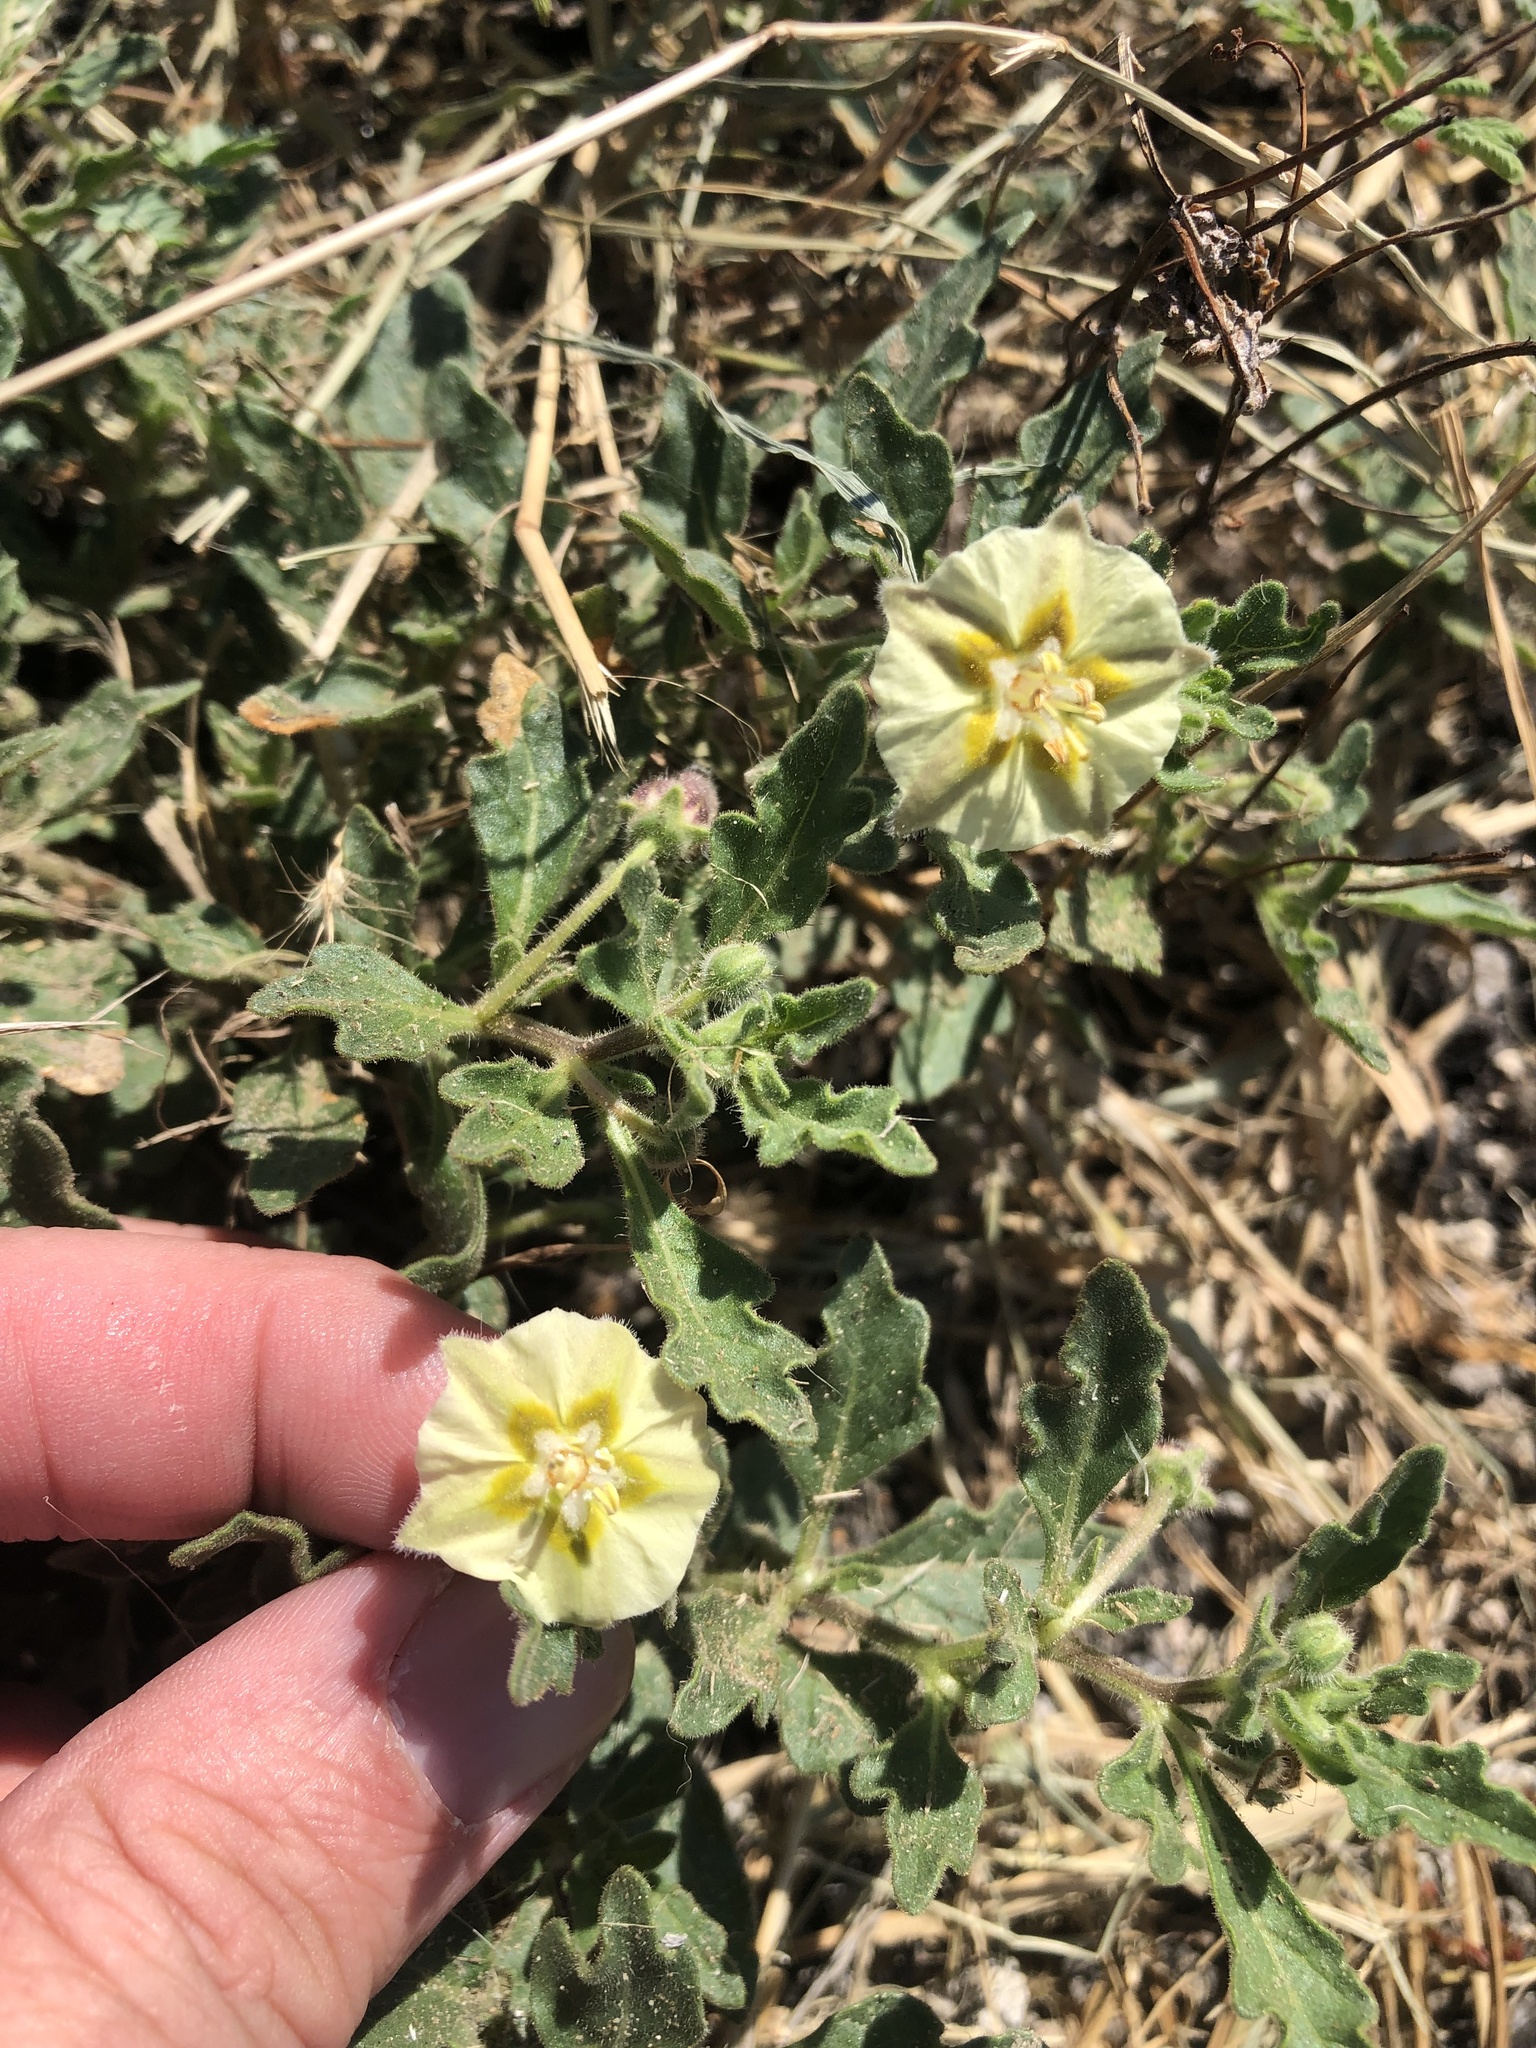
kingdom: Plantae
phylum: Tracheophyta
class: Magnoliopsida
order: Solanales
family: Solanaceae
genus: Chamaesaracha
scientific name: Chamaesaracha sordida
